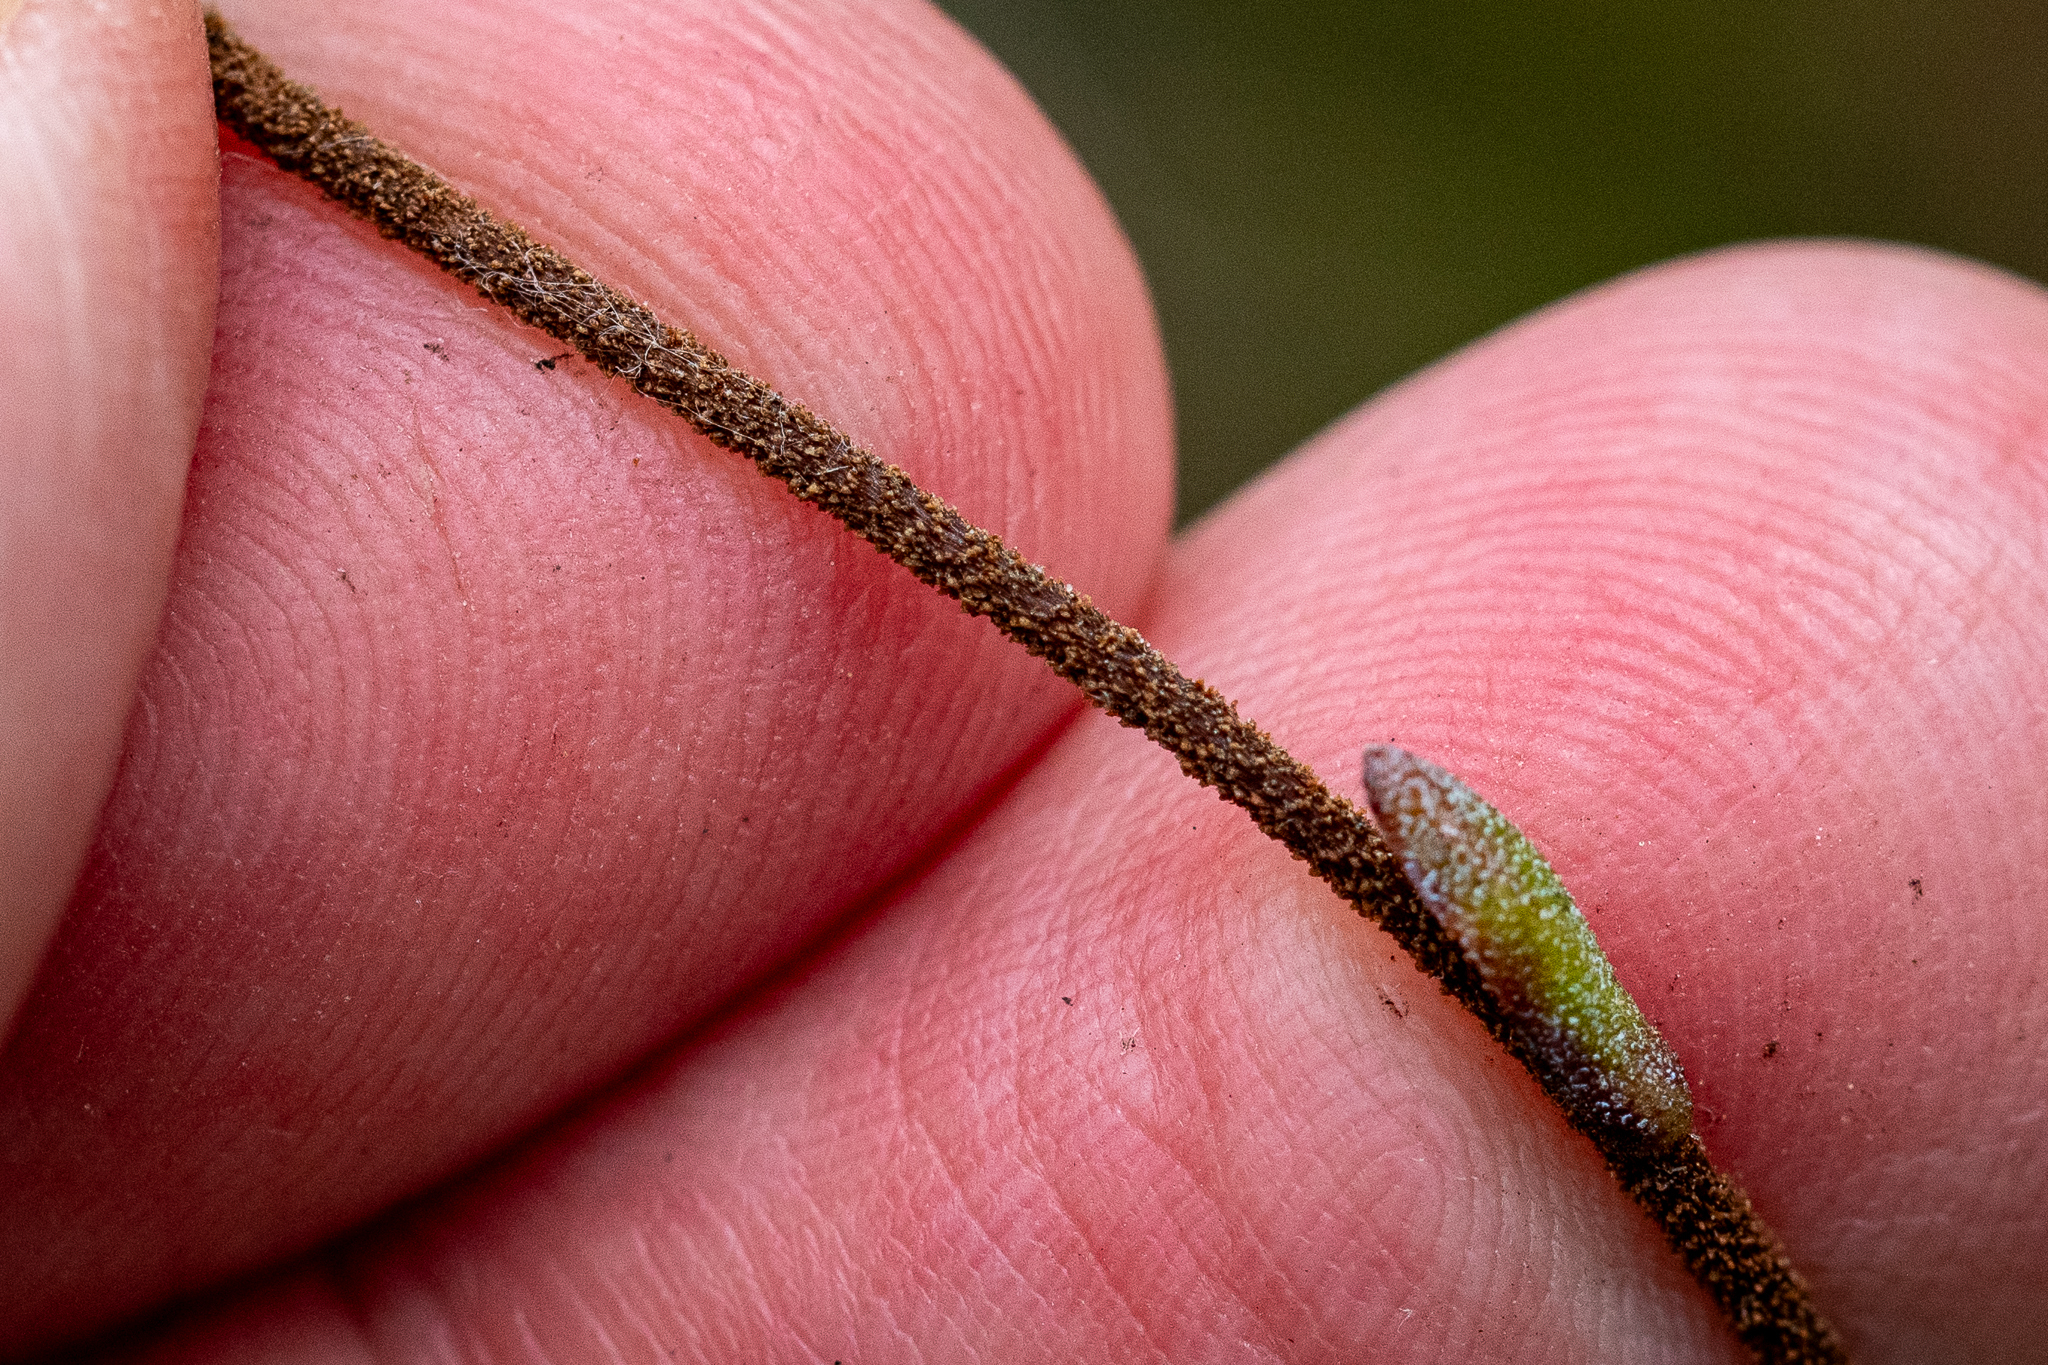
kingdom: Plantae
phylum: Tracheophyta
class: Magnoliopsida
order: Asterales
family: Asteraceae
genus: Corymbium
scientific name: Corymbium africanum
